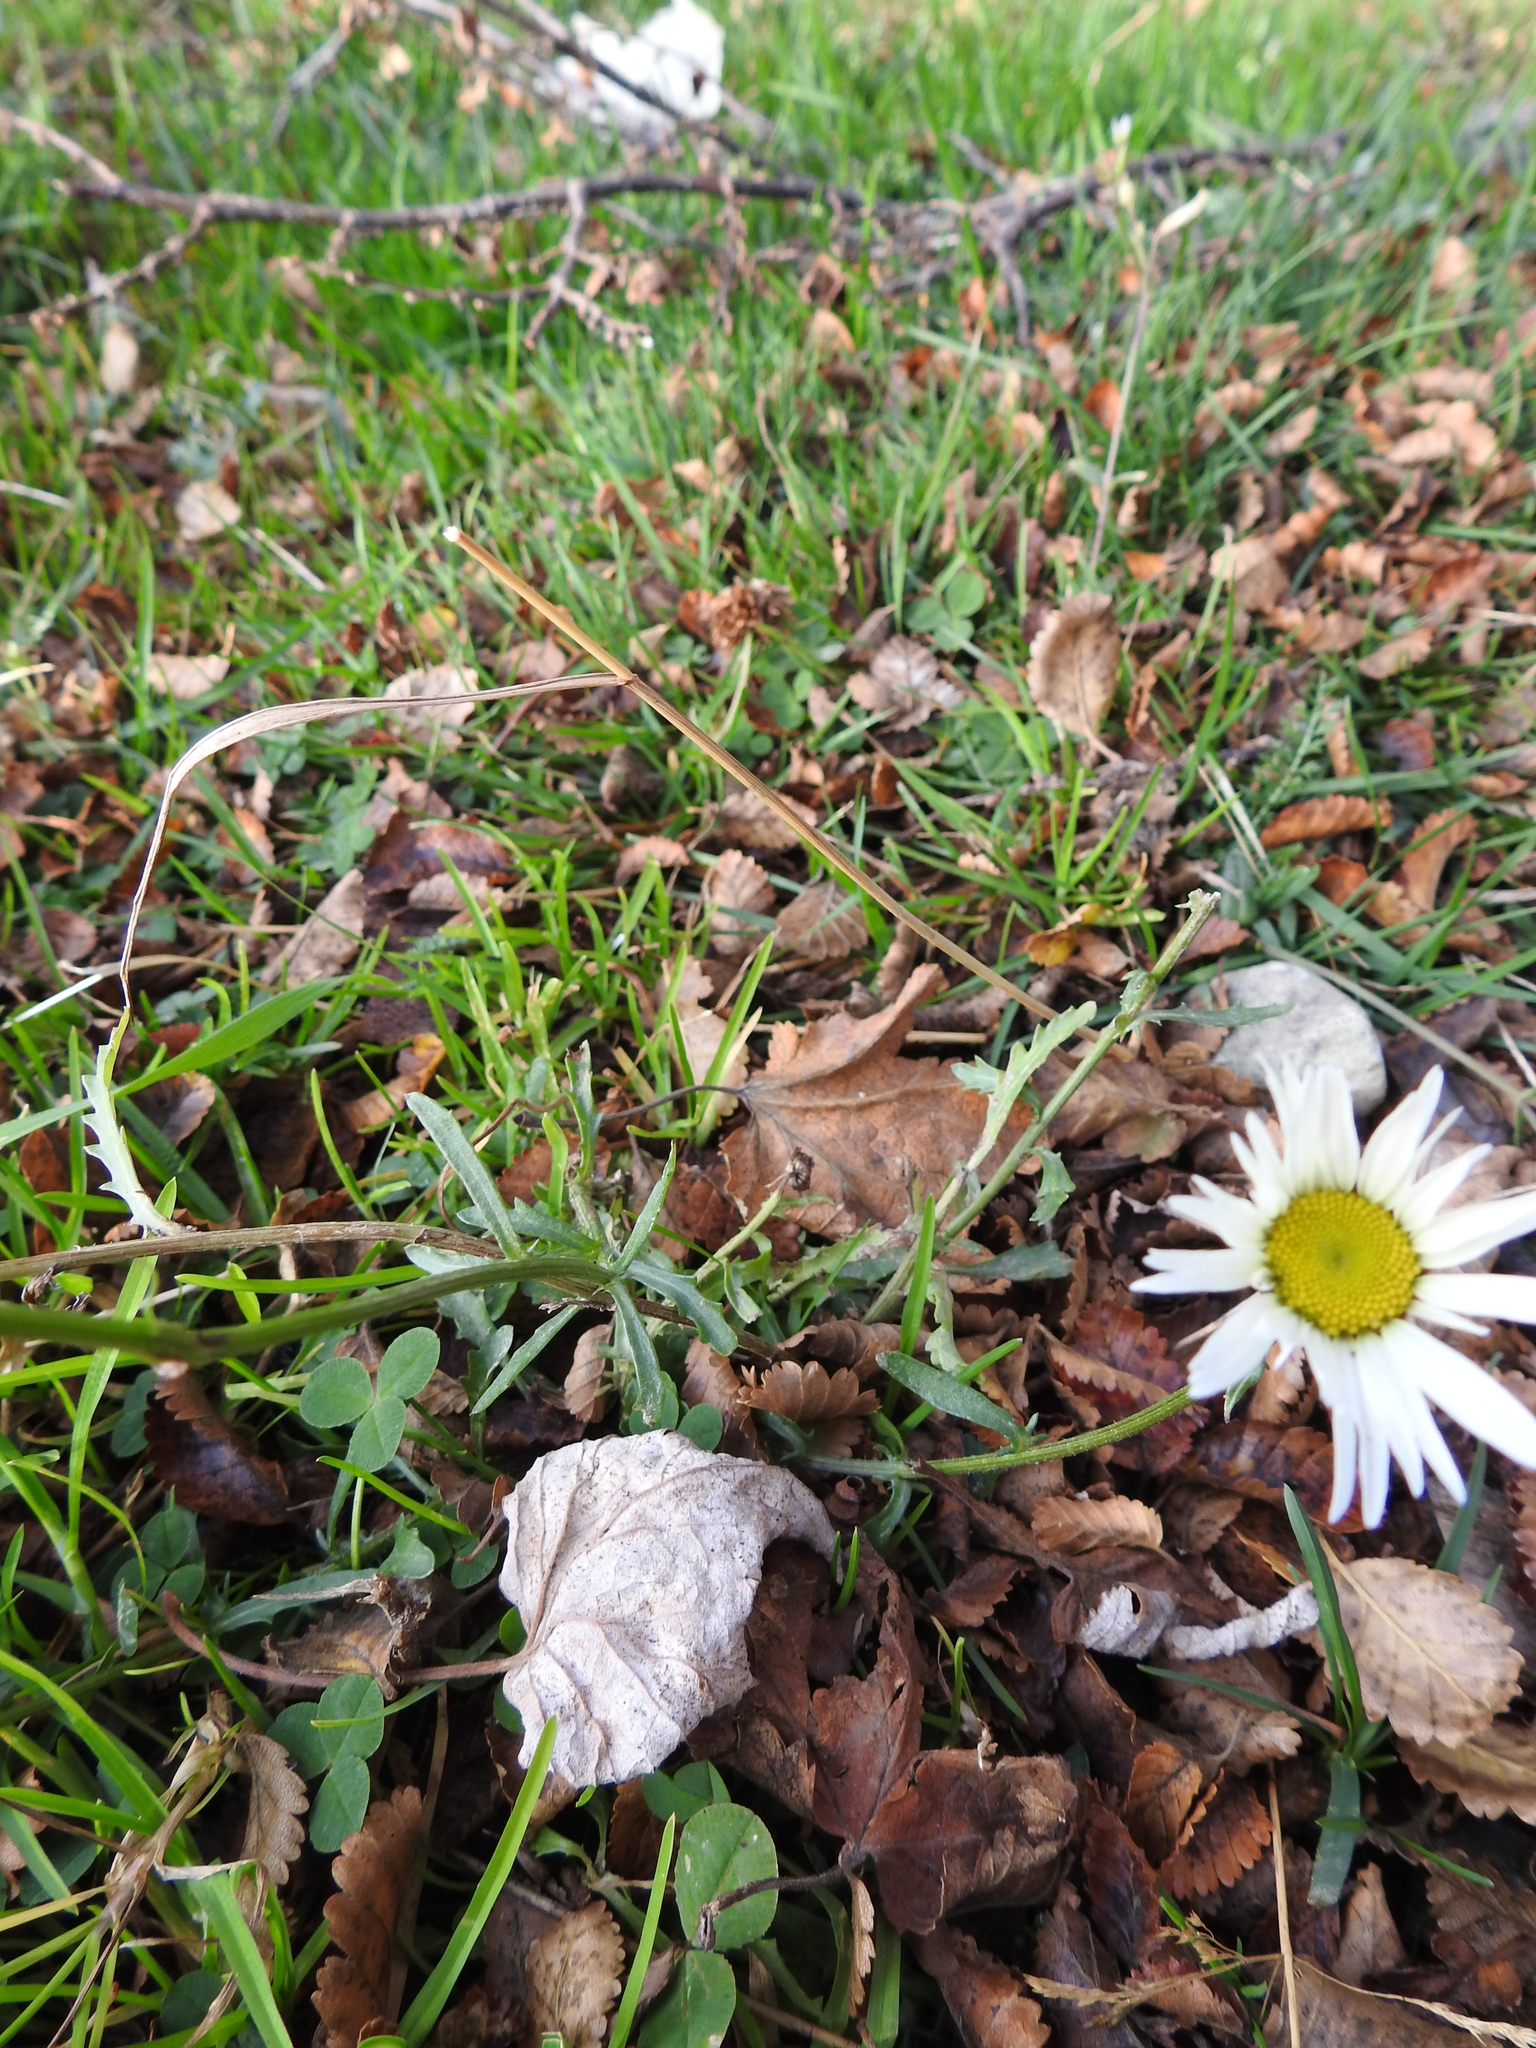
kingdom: Plantae
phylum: Tracheophyta
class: Magnoliopsida
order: Asterales
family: Asteraceae
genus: Leucanthemum
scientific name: Leucanthemum vulgare
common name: Oxeye daisy
